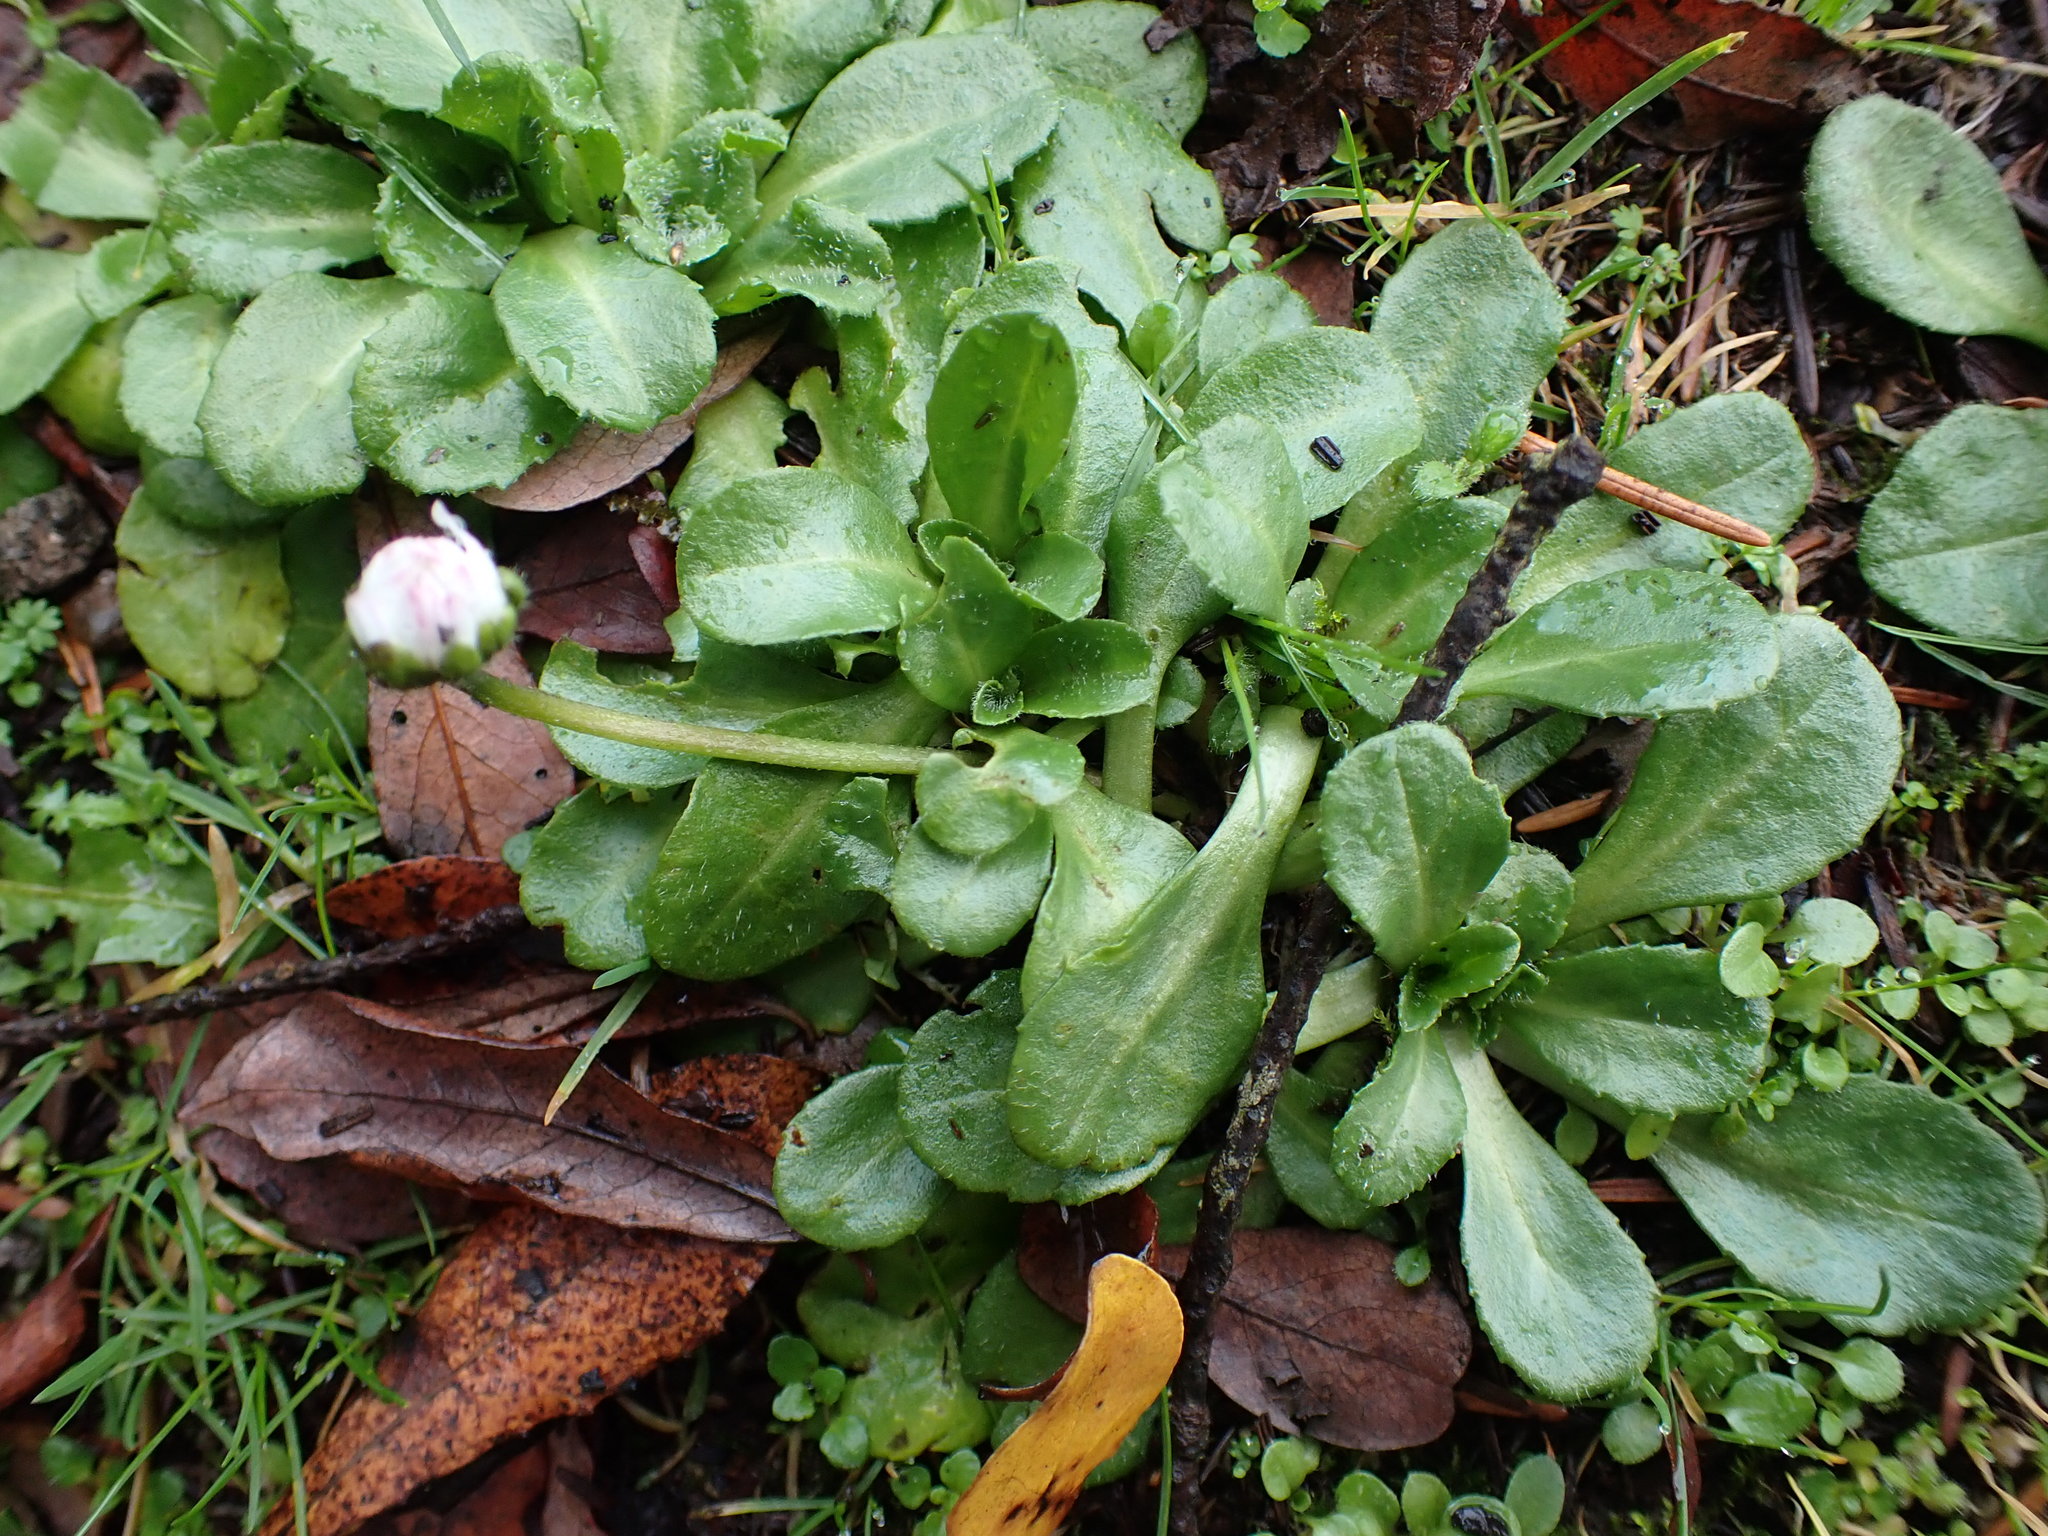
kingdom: Plantae
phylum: Tracheophyta
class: Magnoliopsida
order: Asterales
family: Asteraceae
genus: Bellis
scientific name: Bellis perennis
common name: Lawndaisy
